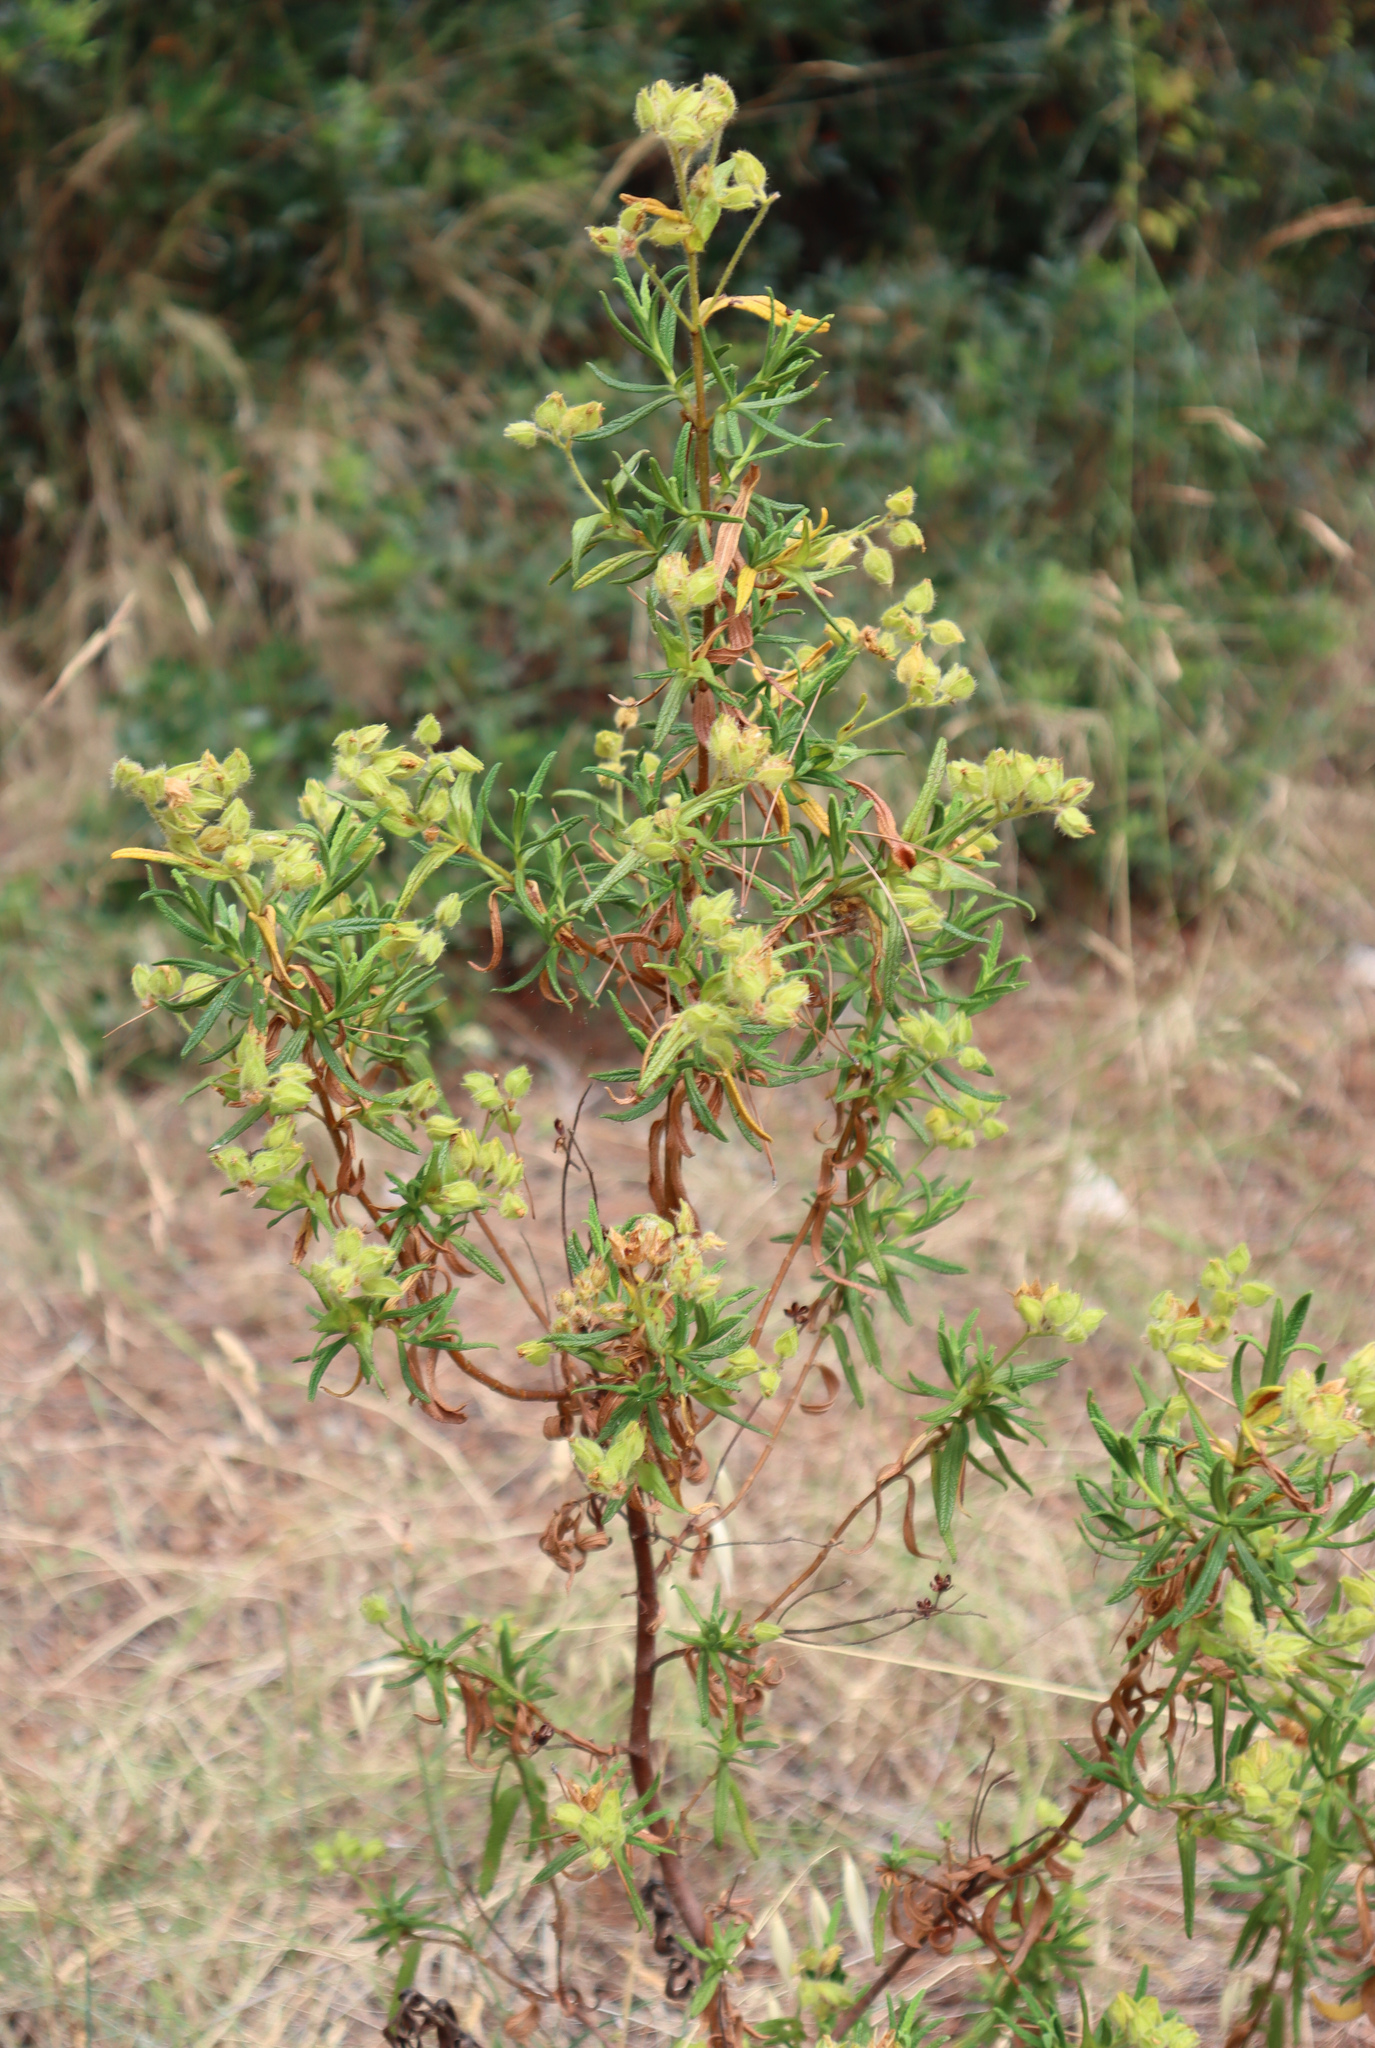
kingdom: Plantae
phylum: Tracheophyta
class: Magnoliopsida
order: Malvales
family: Cistaceae
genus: Cistus
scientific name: Cistus monspeliensis
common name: Montpelier cistus
